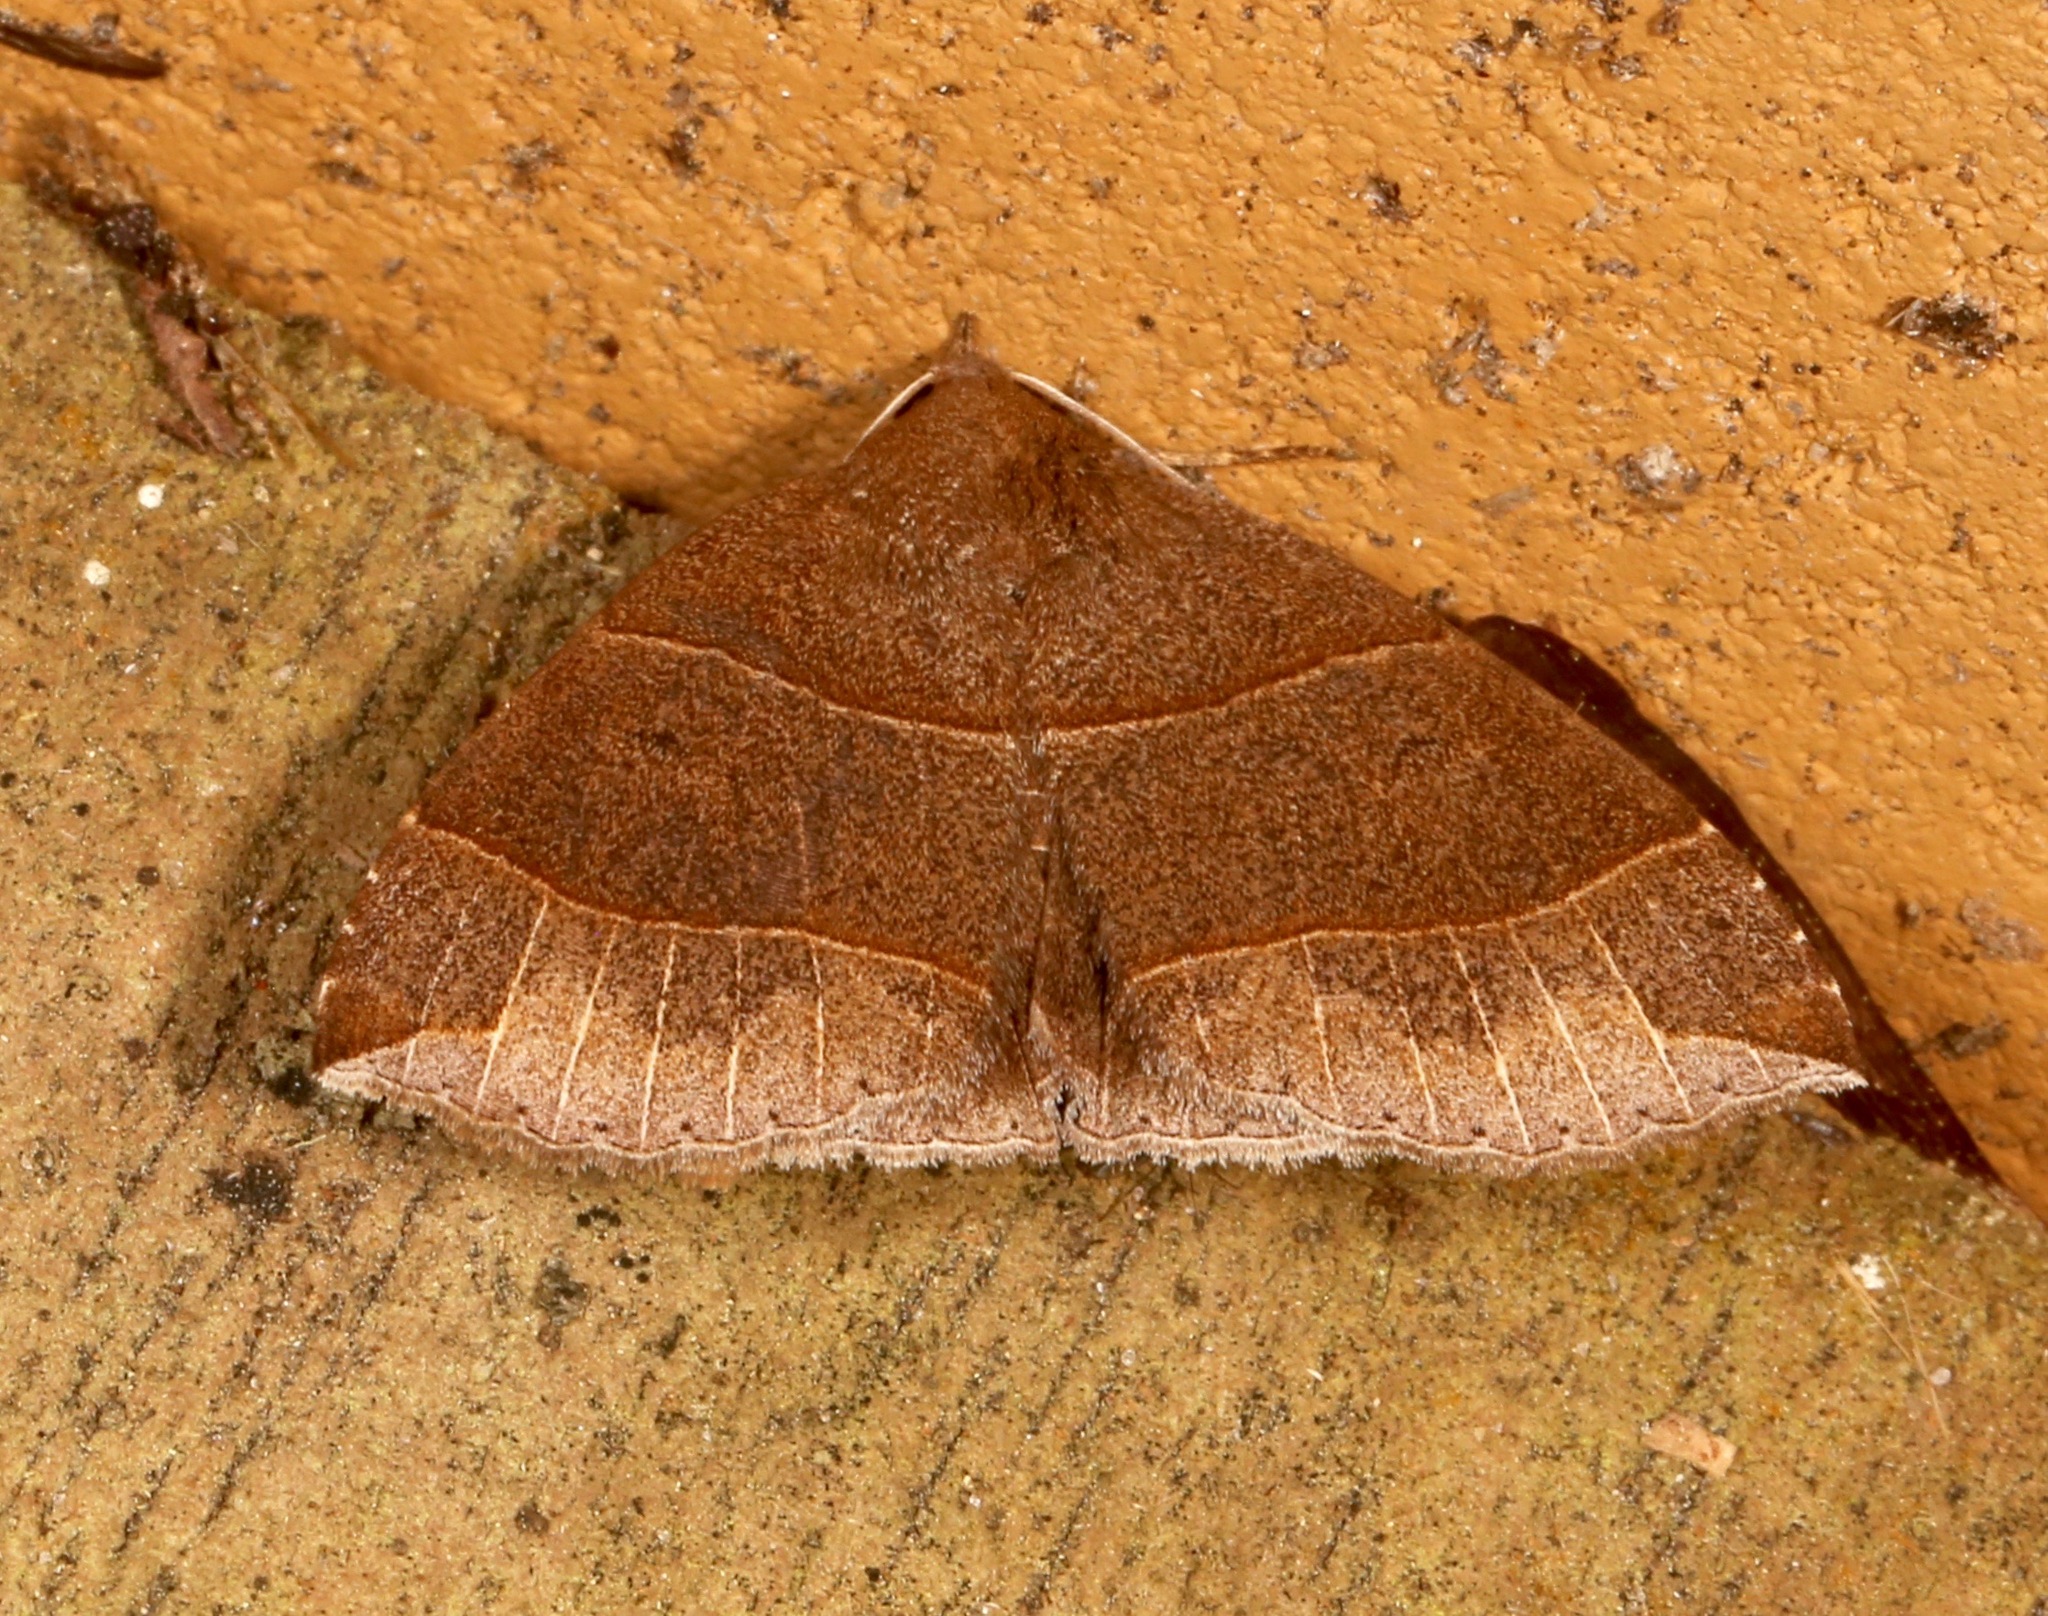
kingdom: Animalia
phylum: Arthropoda
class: Insecta
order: Lepidoptera
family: Erebidae
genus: Parallelia
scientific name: Parallelia bistriaris
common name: Maple looper moth
